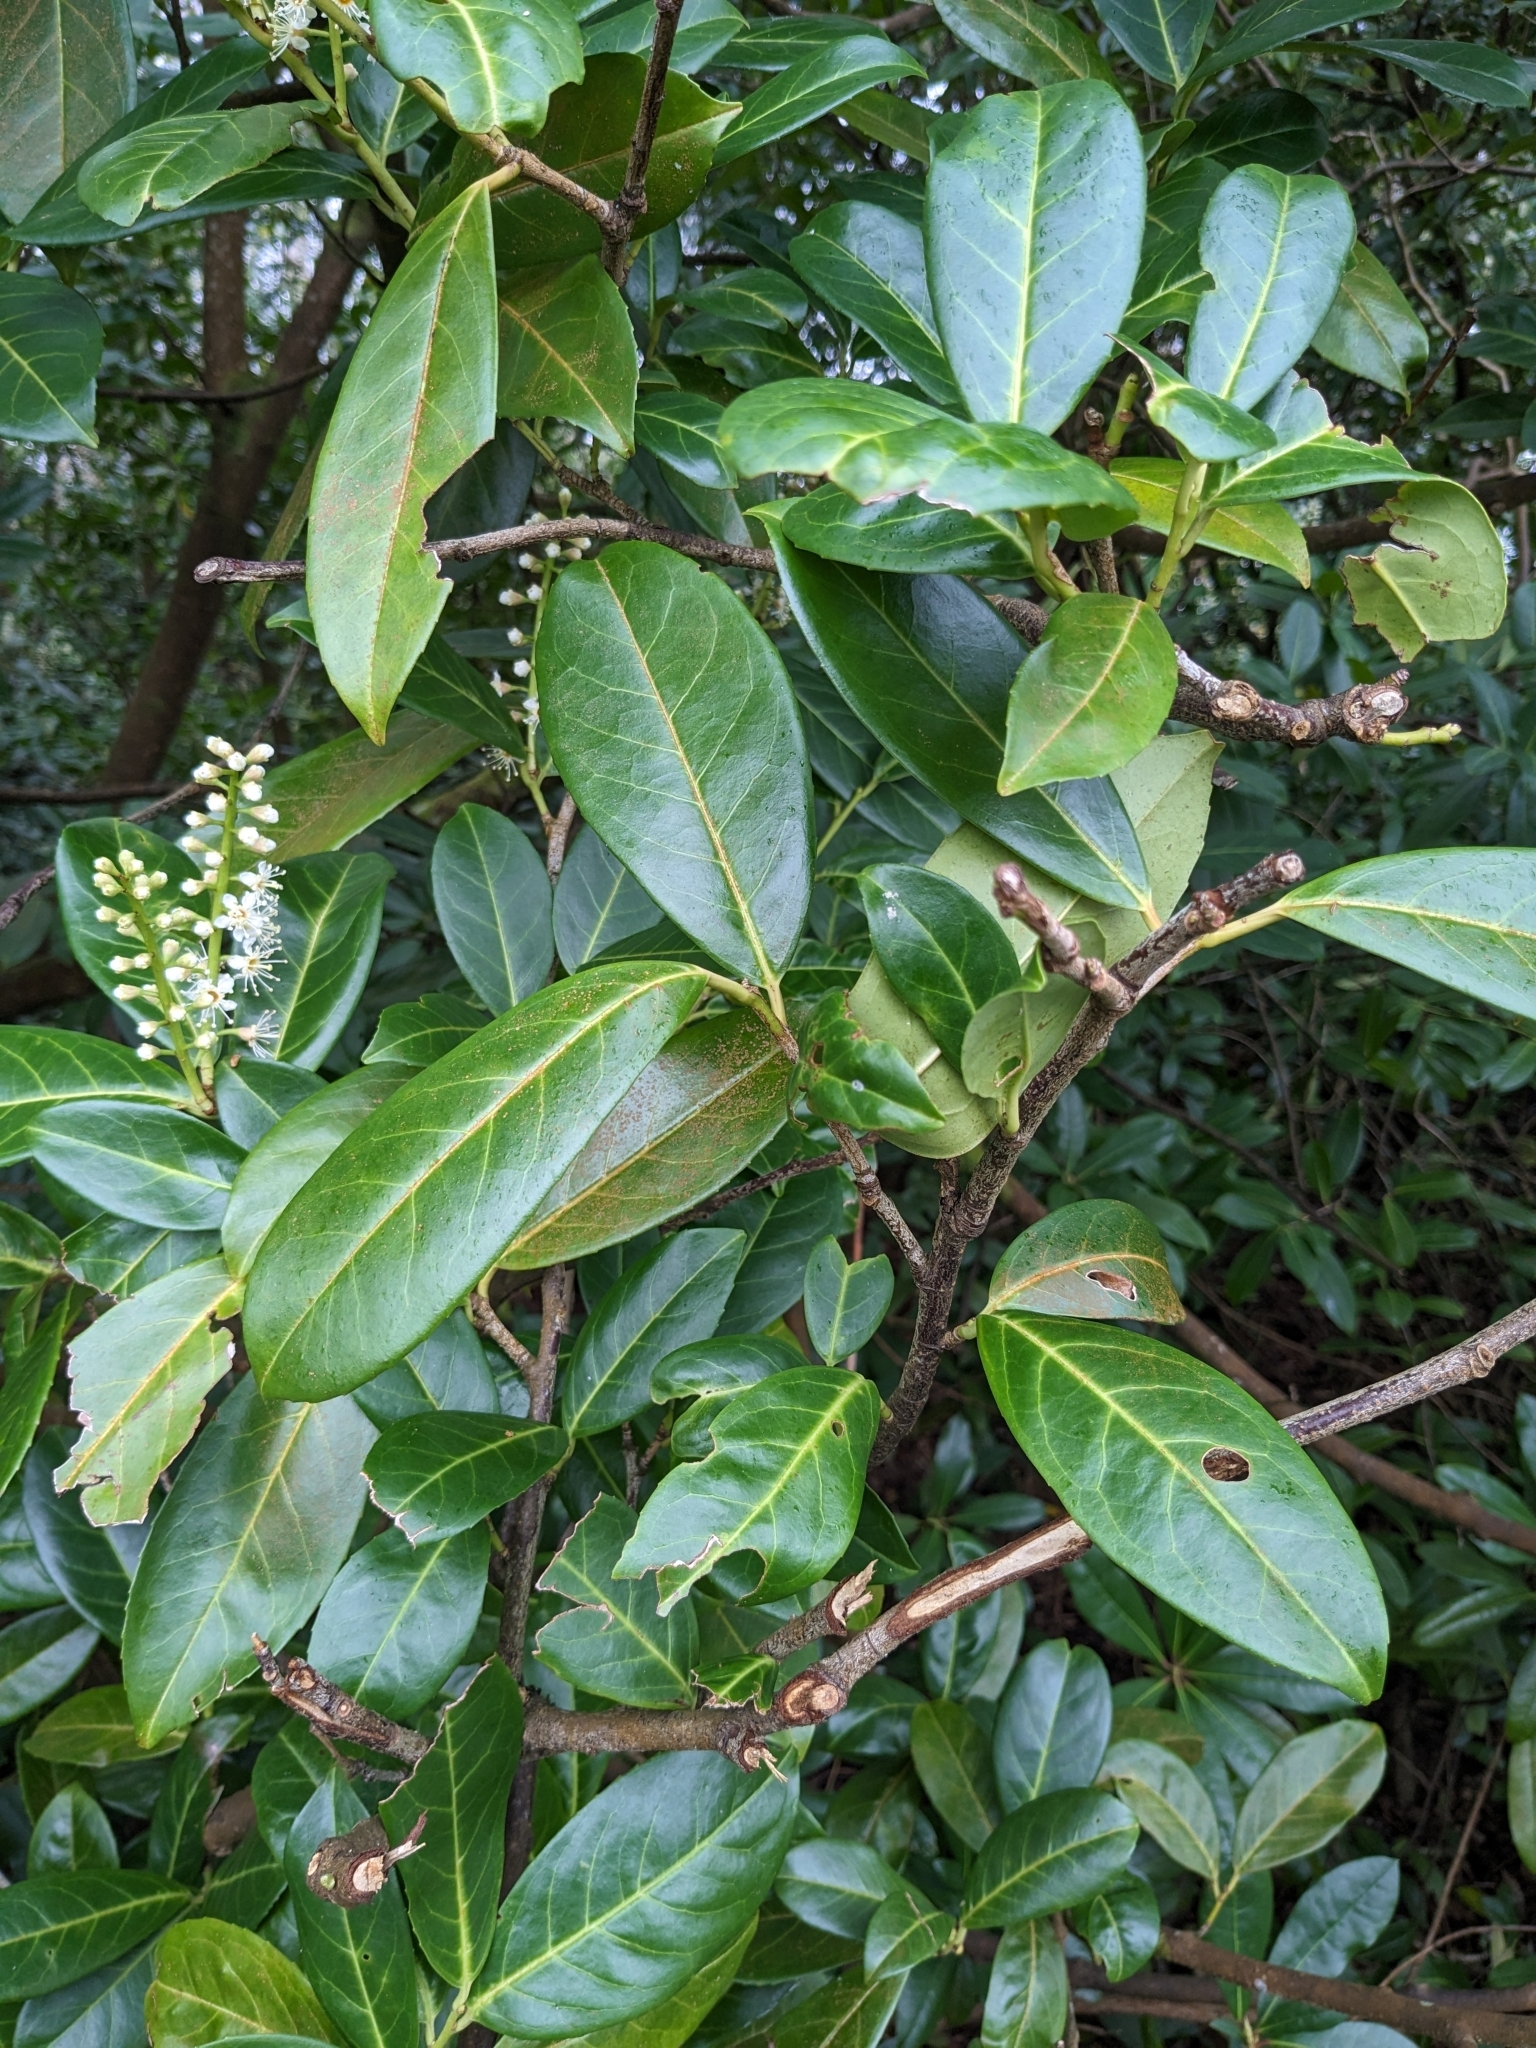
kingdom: Plantae
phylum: Tracheophyta
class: Magnoliopsida
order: Rosales
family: Rosaceae
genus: Prunus
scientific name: Prunus laurocerasus
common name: Cherry laurel
